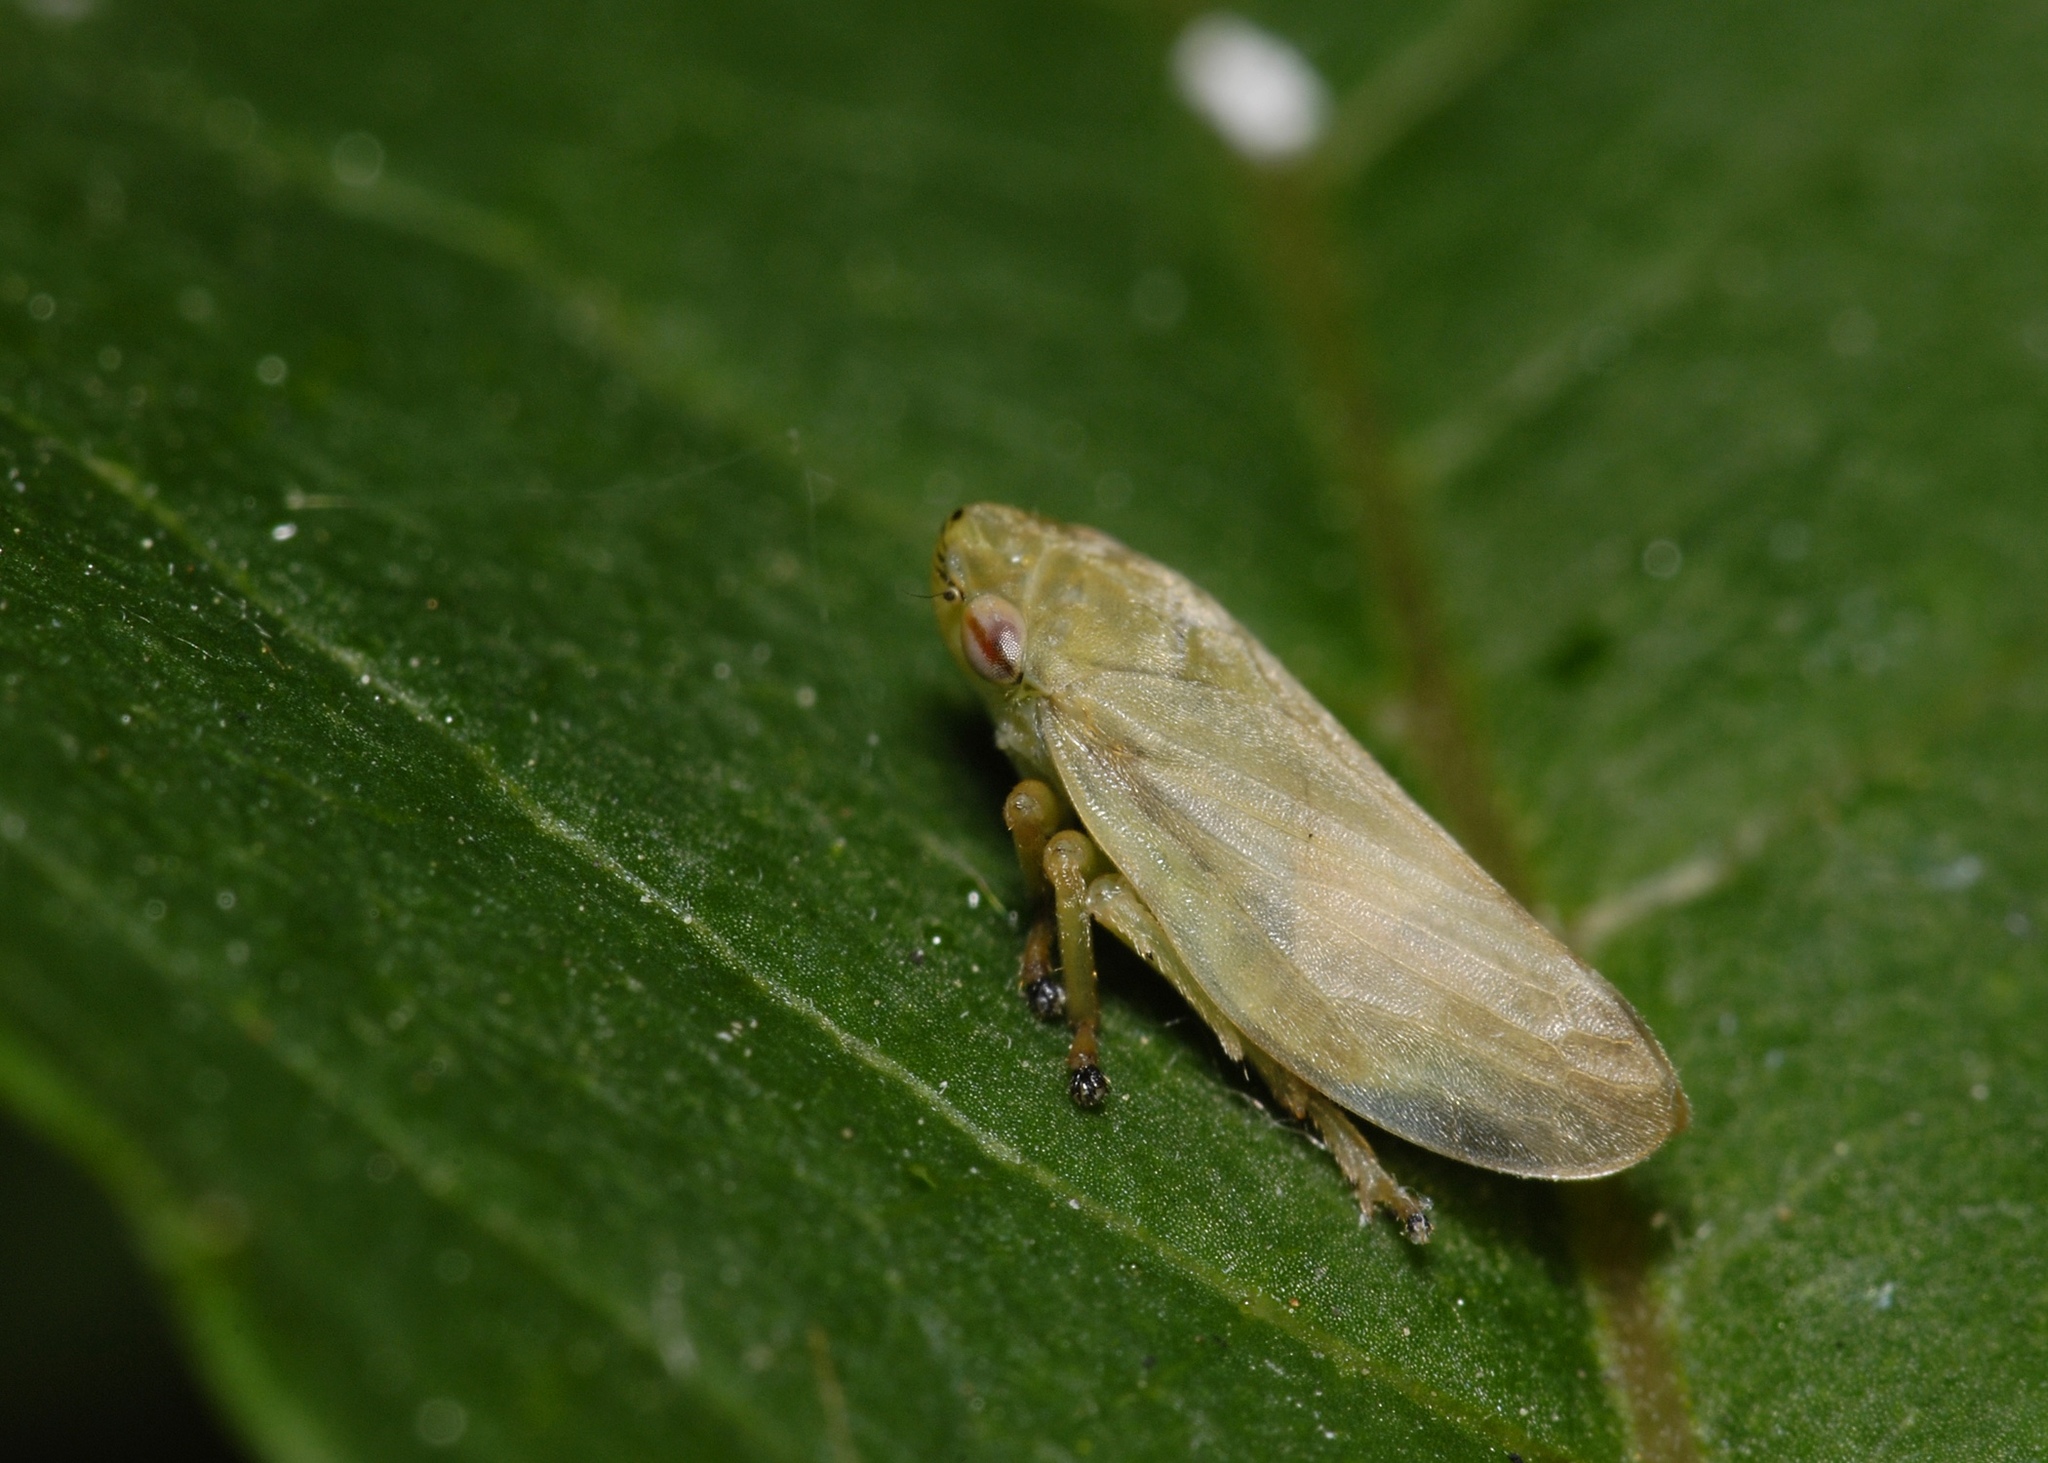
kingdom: Animalia
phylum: Arthropoda
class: Insecta
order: Hemiptera
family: Aphrophoridae
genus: Philaenus
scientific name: Philaenus spumarius
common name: Meadow spittlebug
